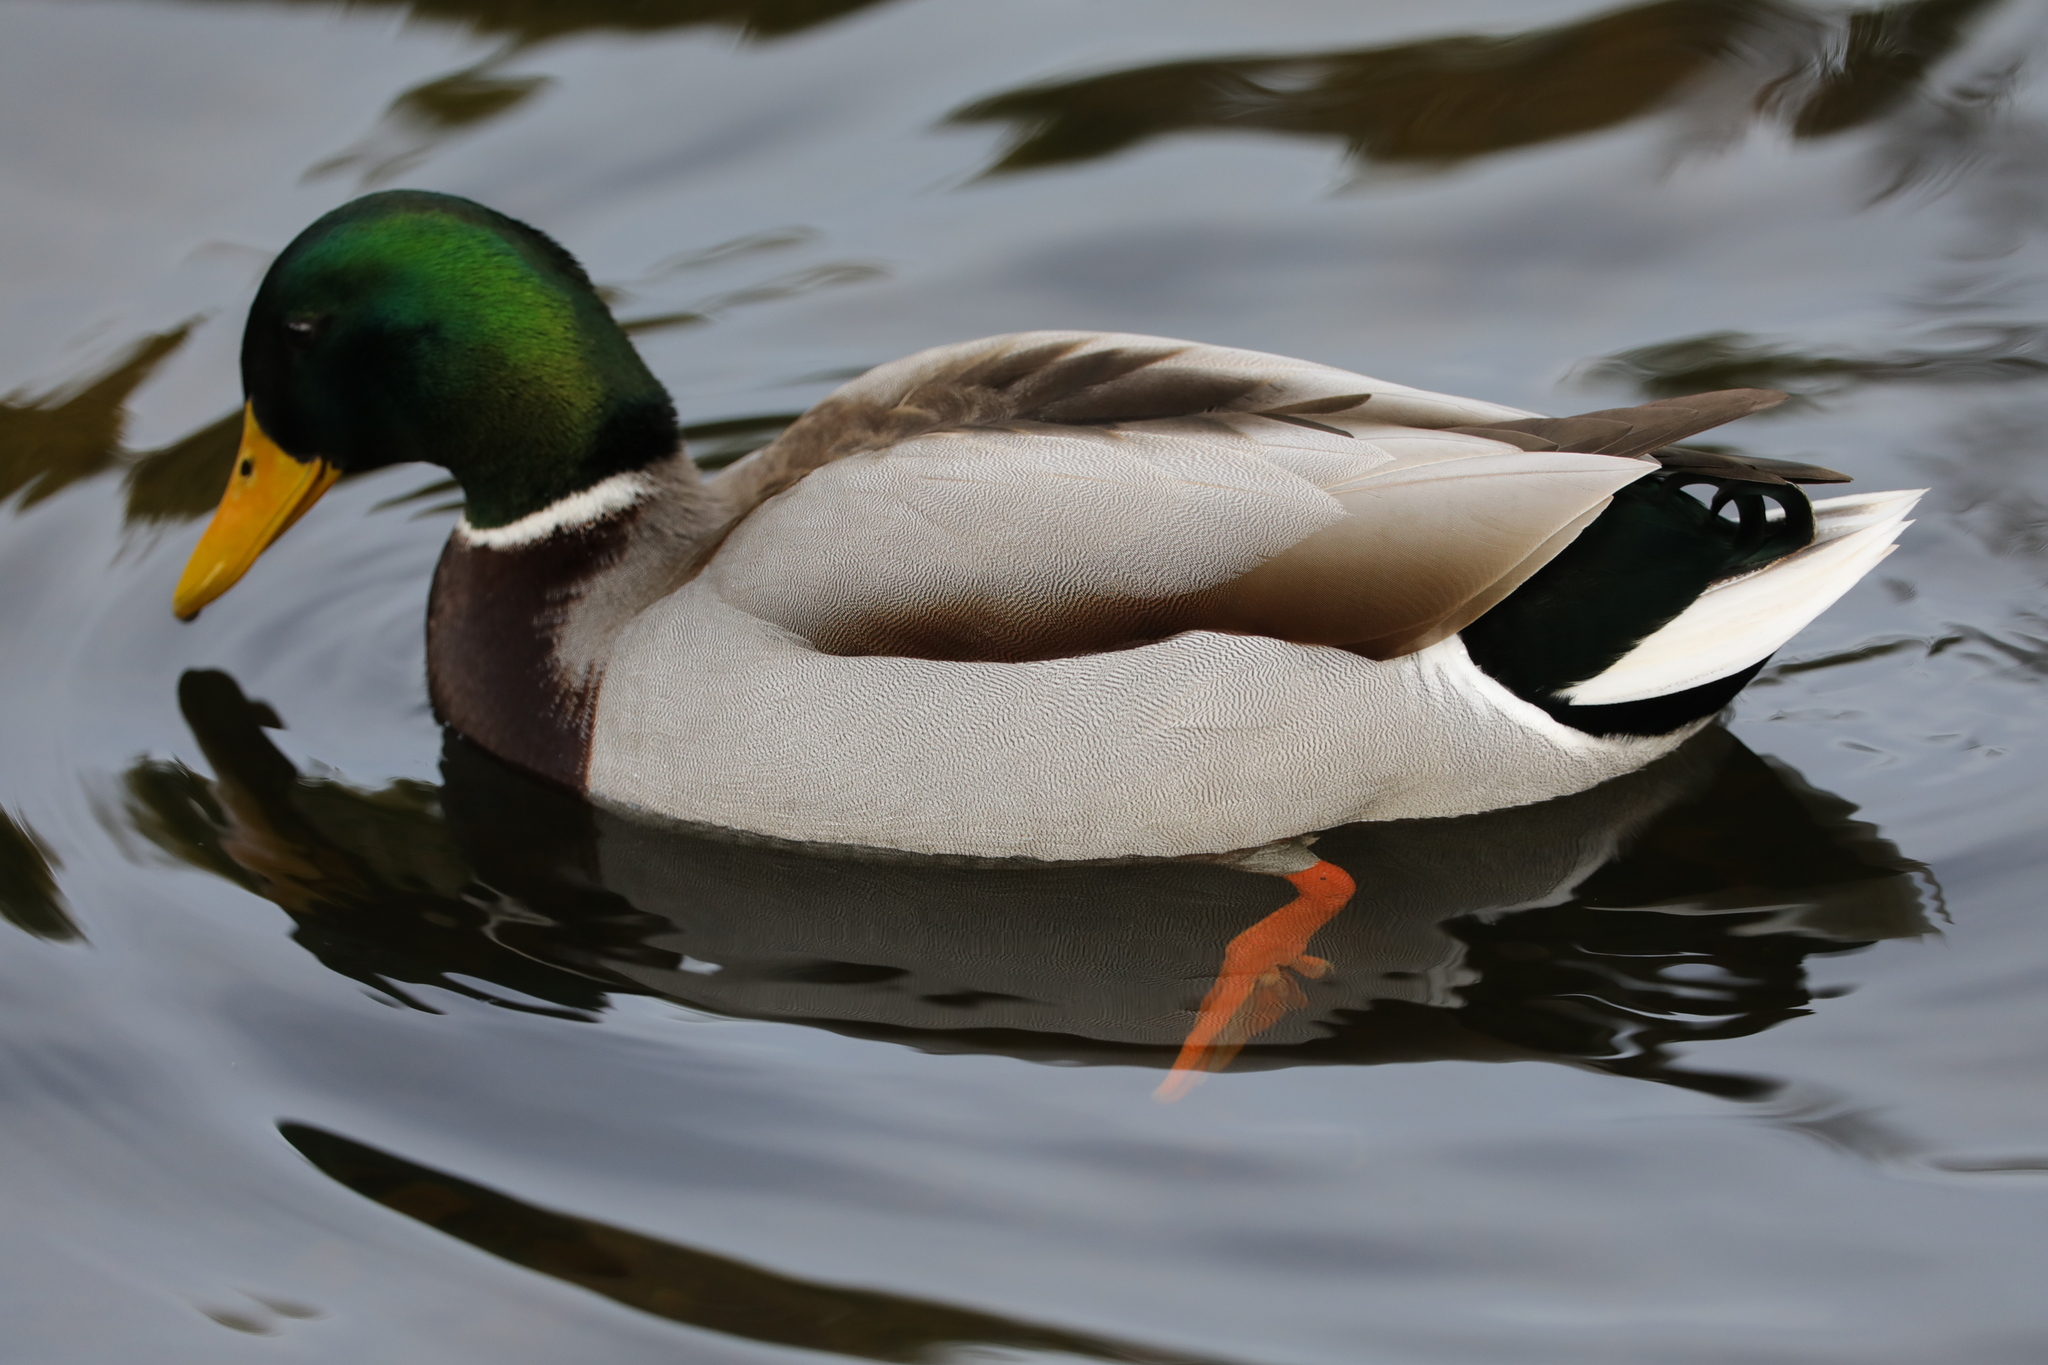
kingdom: Animalia
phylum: Chordata
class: Aves
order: Anseriformes
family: Anatidae
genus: Anas
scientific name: Anas platyrhynchos
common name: Mallard
